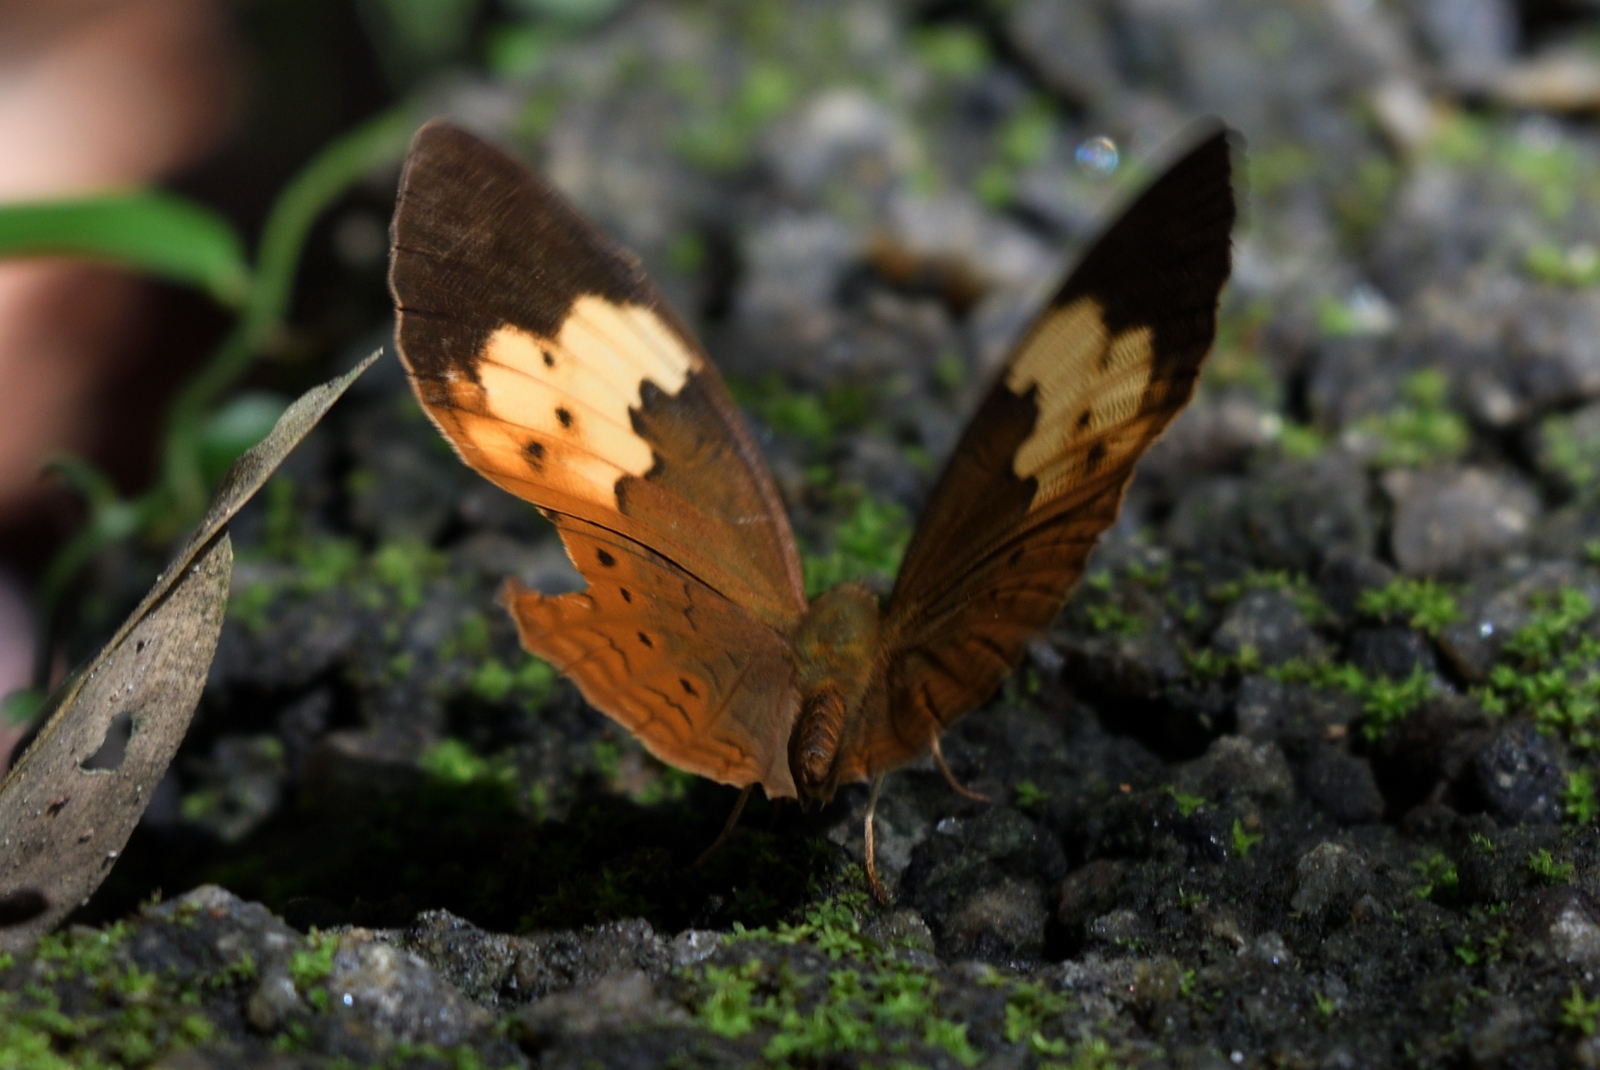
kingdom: Animalia
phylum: Arthropoda
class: Insecta
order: Lepidoptera
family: Nymphalidae
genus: Cupha
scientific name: Cupha erymanthis
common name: Rustic
